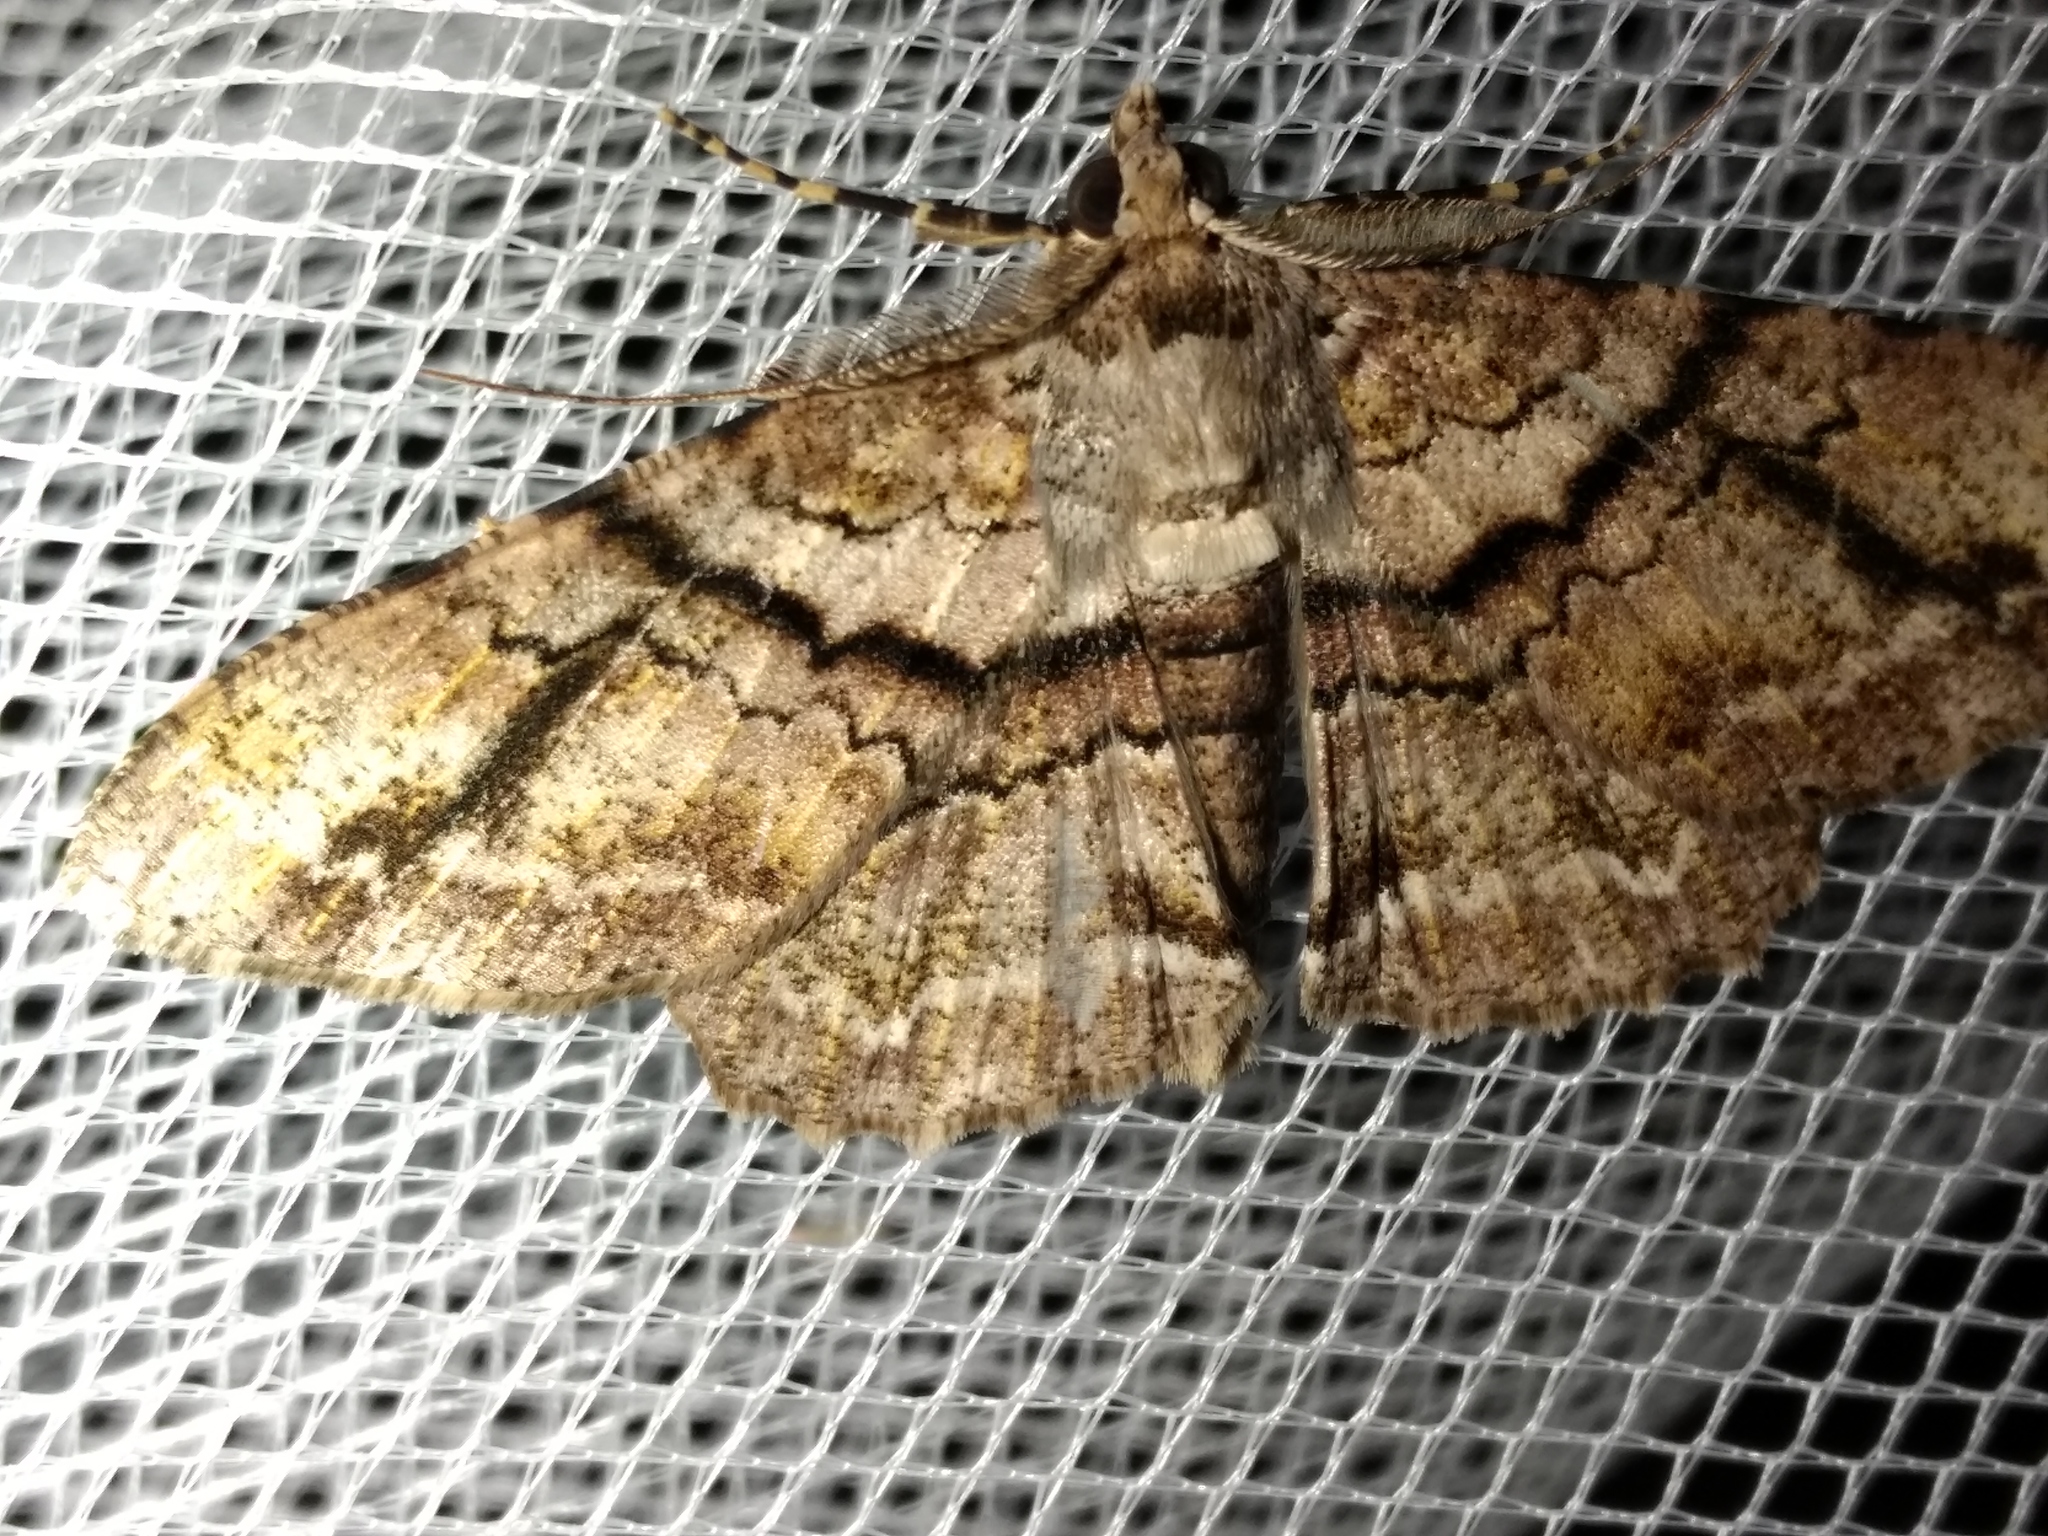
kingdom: Animalia
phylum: Arthropoda
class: Insecta
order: Lepidoptera
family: Geometridae
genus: Cleora
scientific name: Cleora repetita
